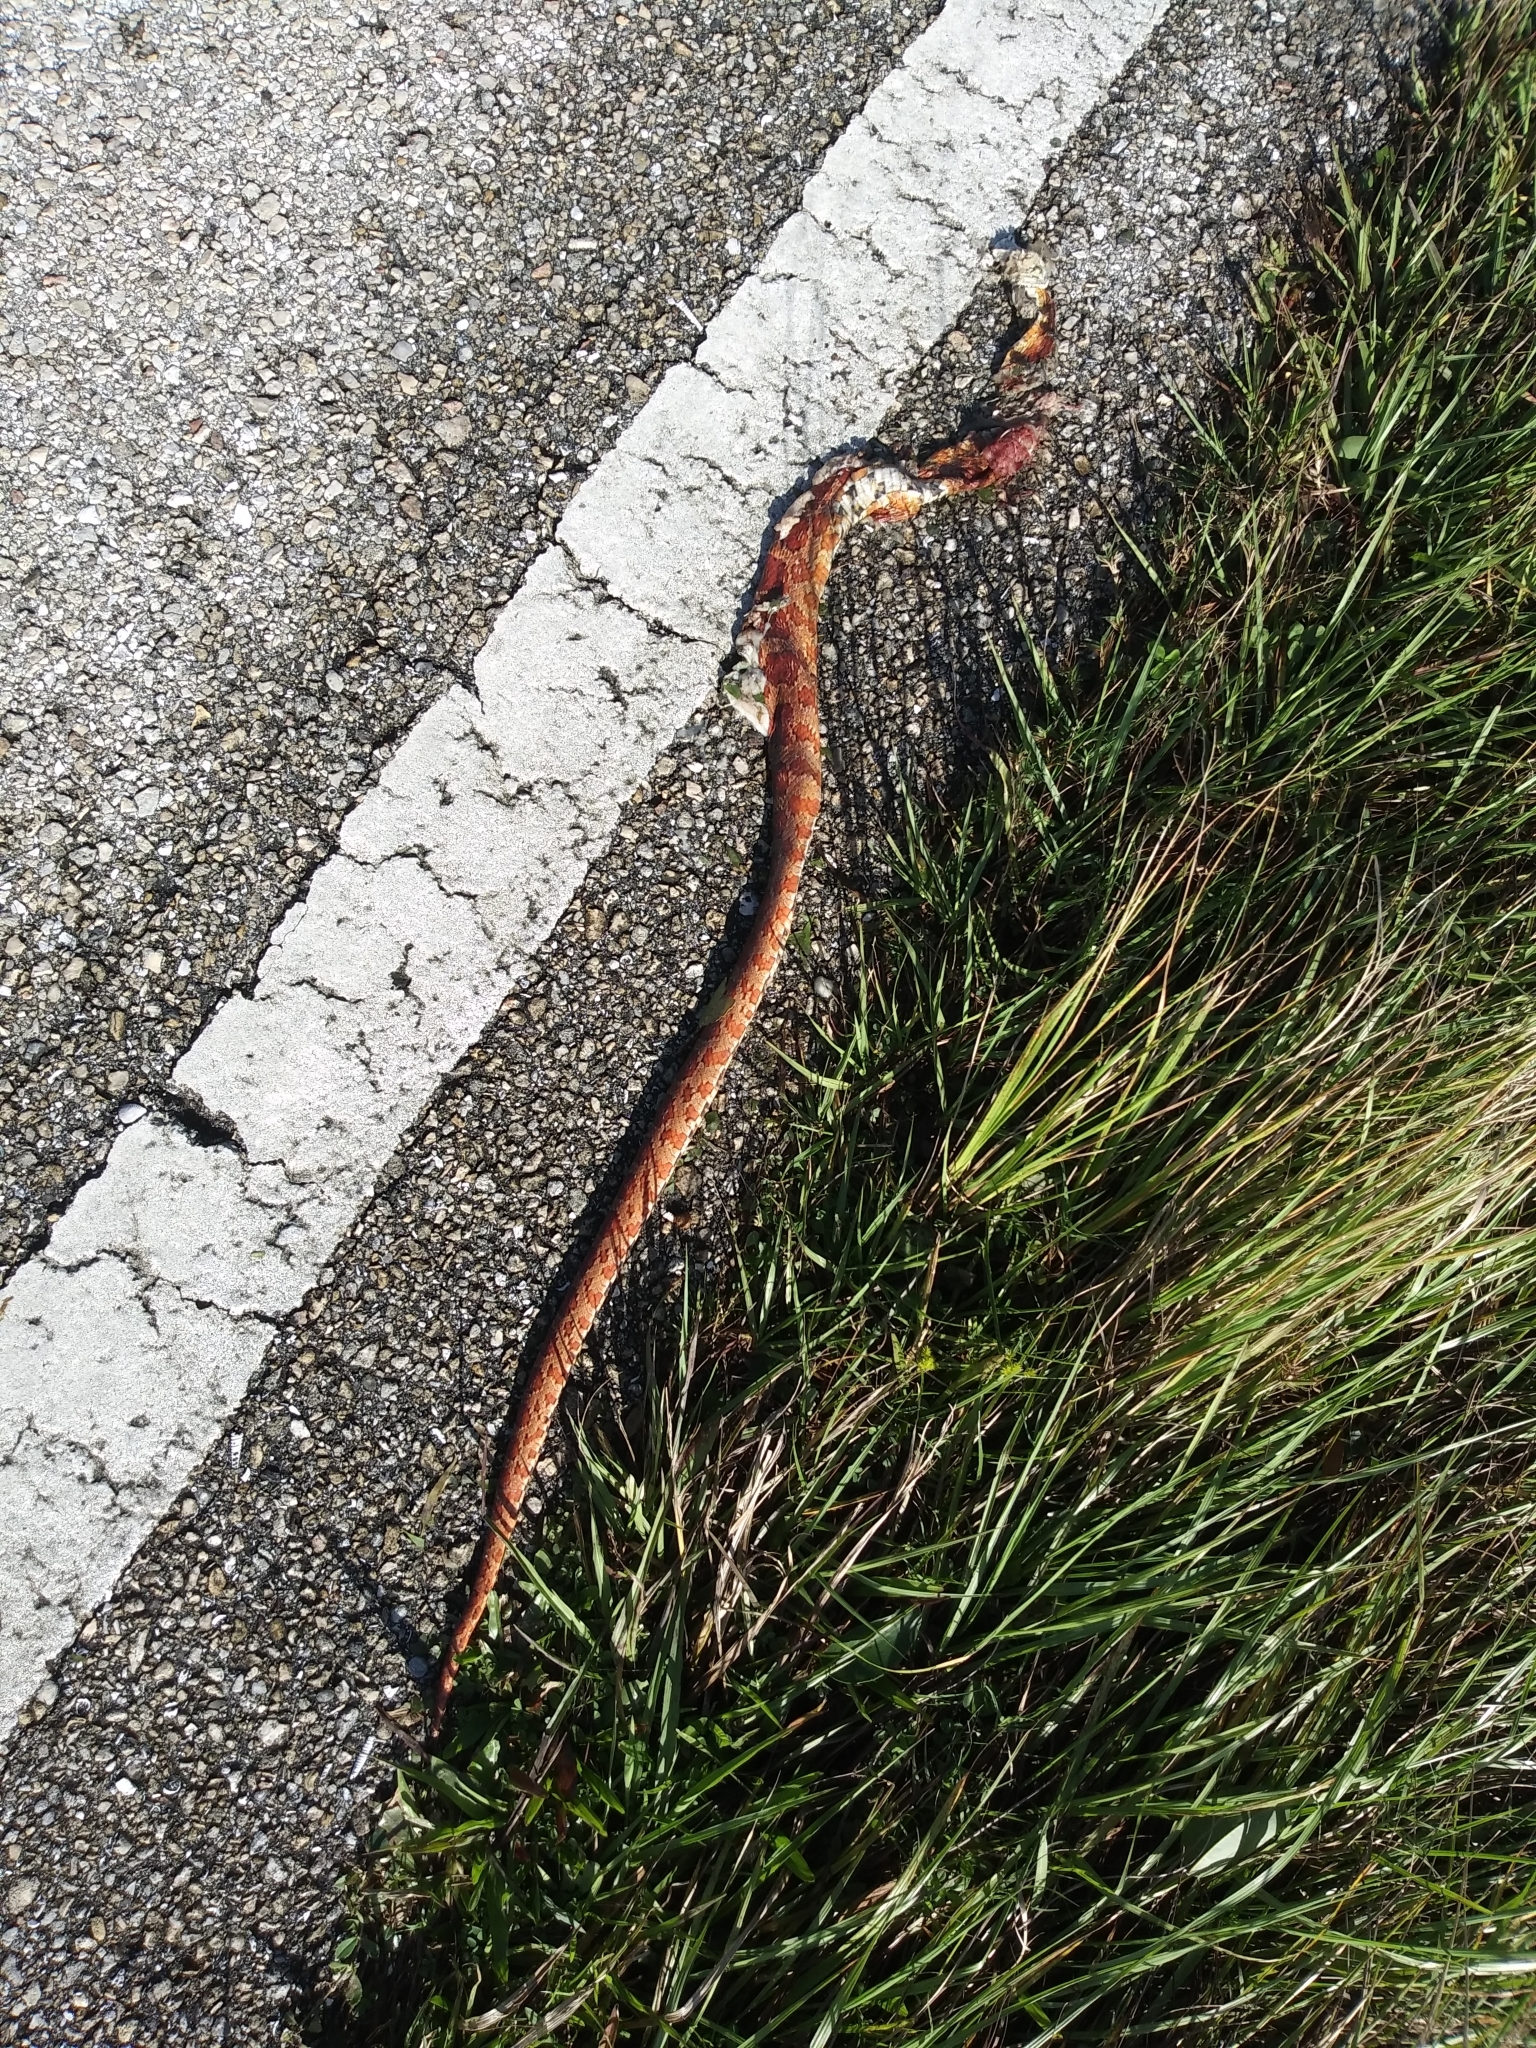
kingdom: Animalia
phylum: Chordata
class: Squamata
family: Colubridae
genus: Pantherophis
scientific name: Pantherophis guttatus
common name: Red cornsnake
